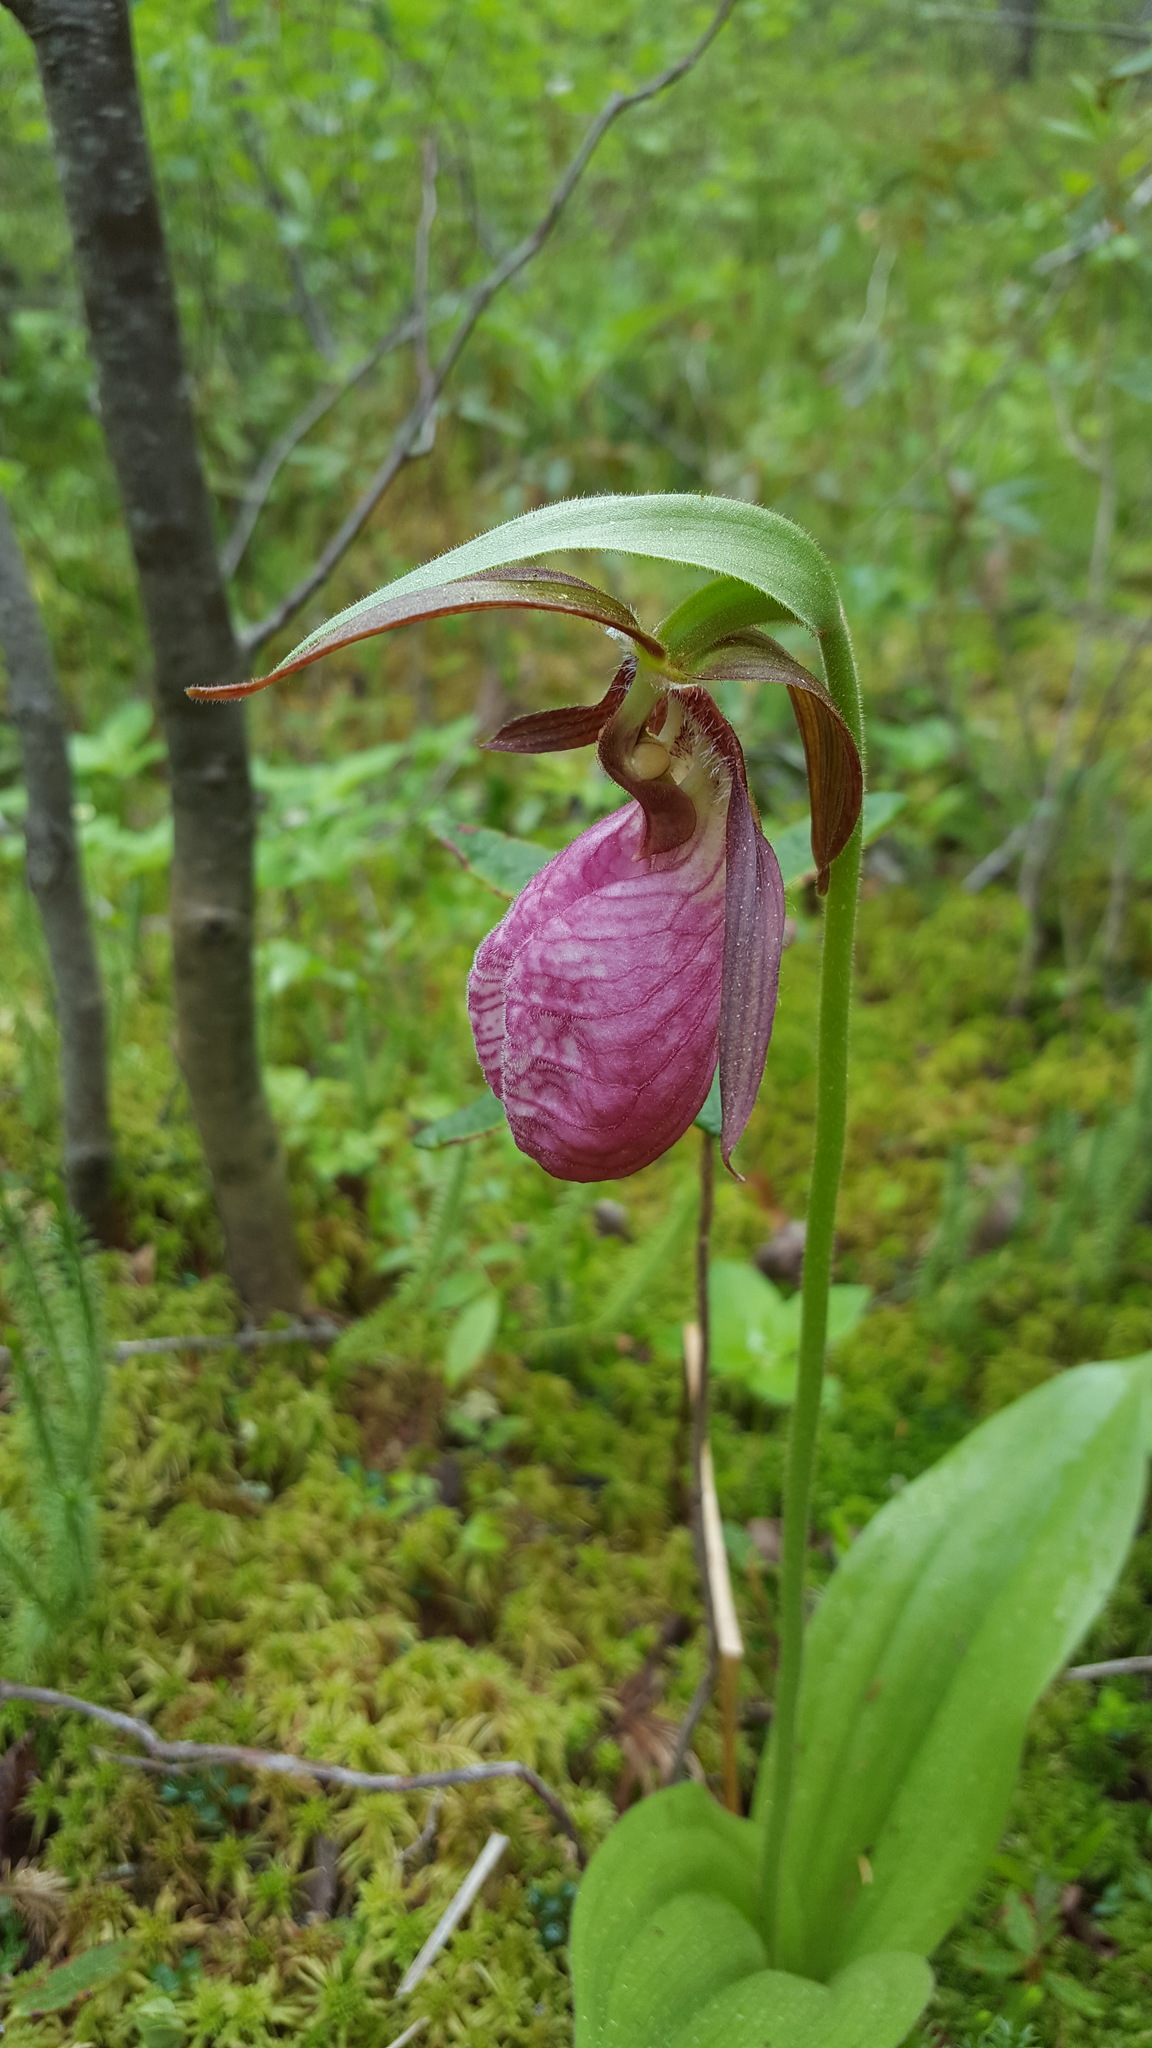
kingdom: Plantae
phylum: Tracheophyta
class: Liliopsida
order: Asparagales
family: Orchidaceae
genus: Cypripedium
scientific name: Cypripedium acaule
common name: Pink lady's-slipper
